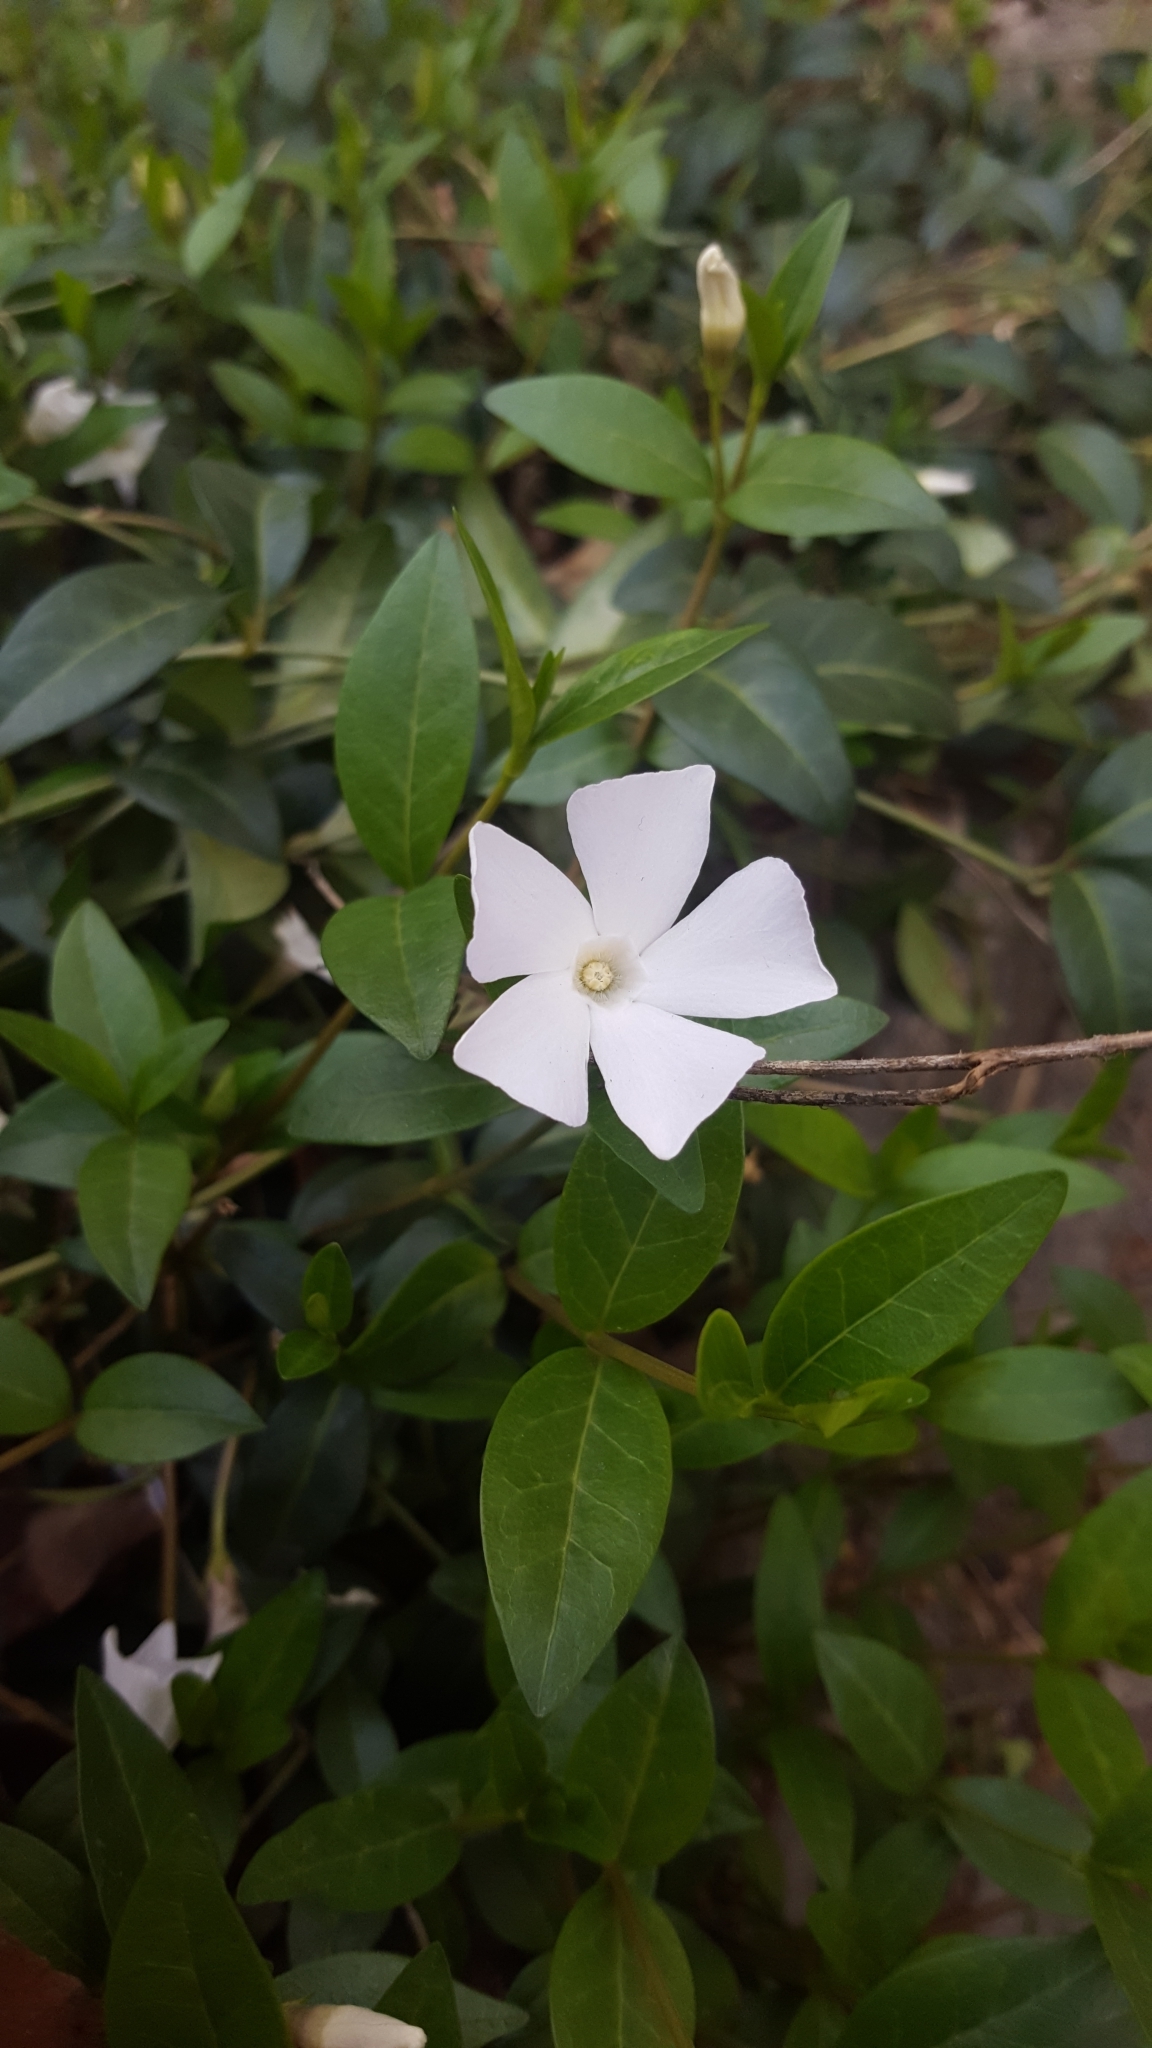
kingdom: Plantae
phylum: Tracheophyta
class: Magnoliopsida
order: Gentianales
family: Apocynaceae
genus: Vinca
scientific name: Vinca minor
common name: Lesser periwinkle
